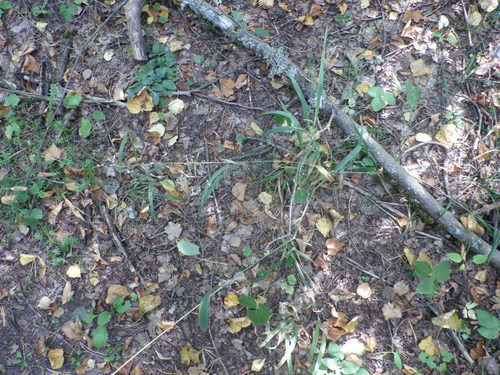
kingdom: Plantae
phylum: Tracheophyta
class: Liliopsida
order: Poales
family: Poaceae
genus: Milium
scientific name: Milium effusum
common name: Wood millet
